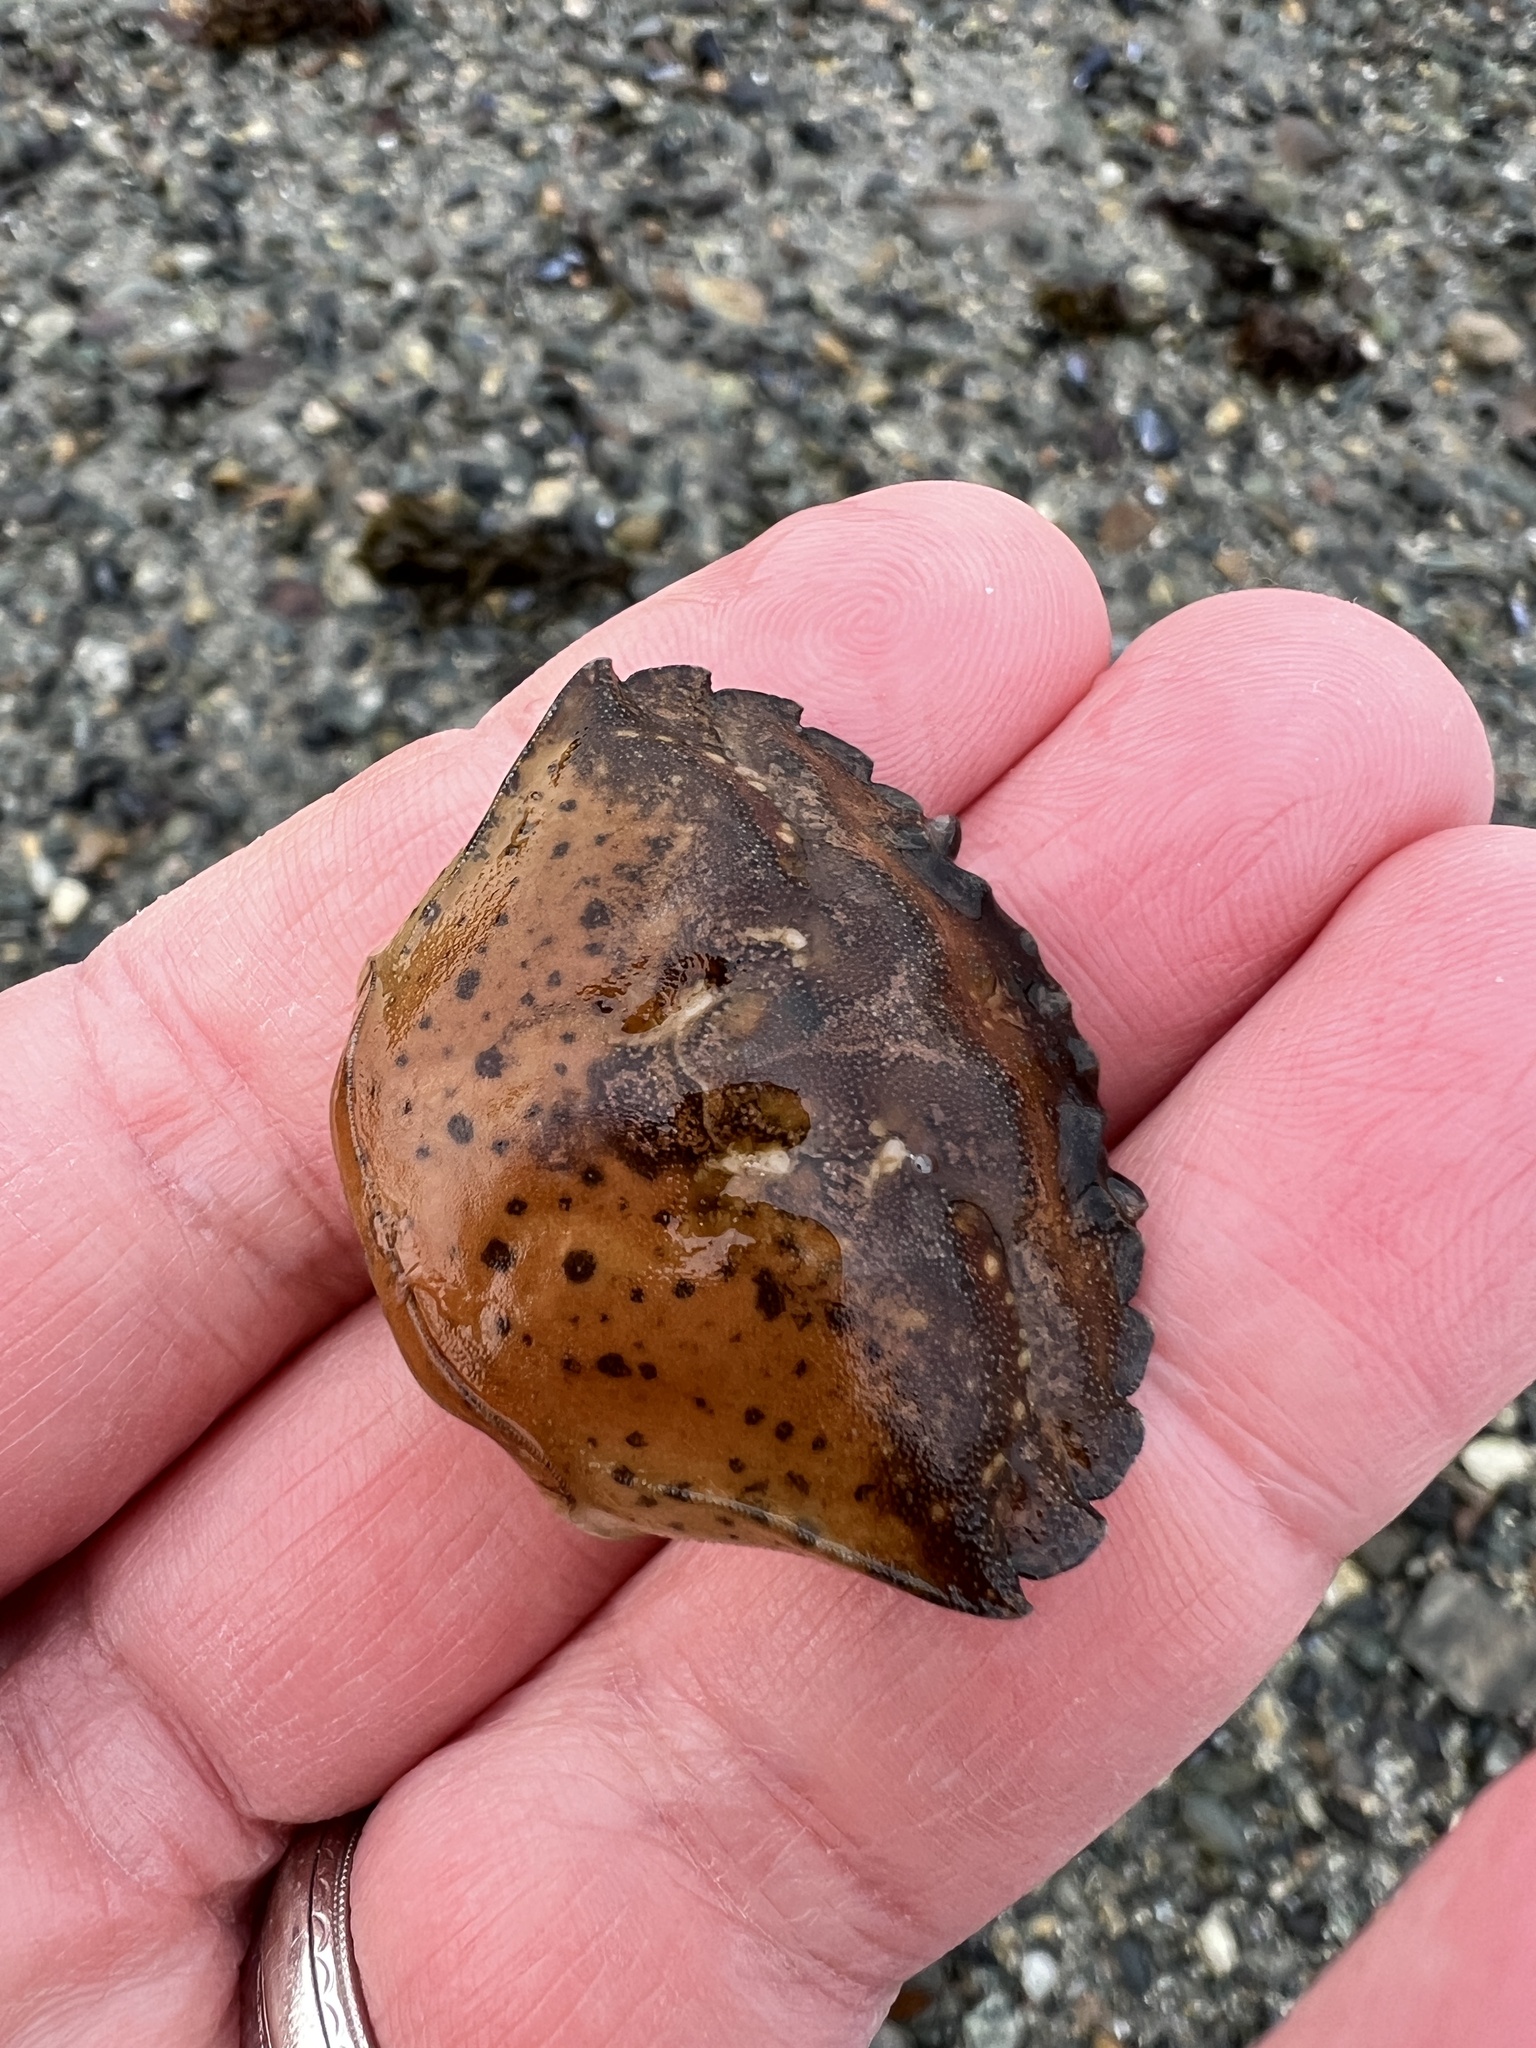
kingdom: Animalia
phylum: Arthropoda
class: Malacostraca
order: Decapoda
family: Carcinidae
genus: Carcinus
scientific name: Carcinus maenas
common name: European green crab
